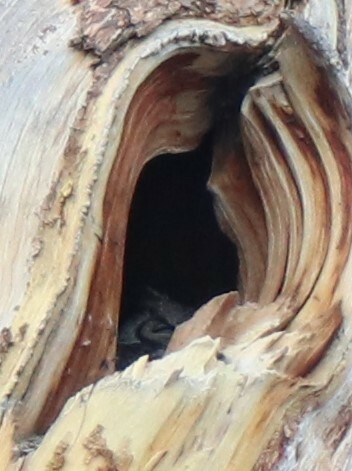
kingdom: Animalia
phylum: Chordata
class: Aves
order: Strigiformes
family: Strigidae
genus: Bubo
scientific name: Bubo virginianus
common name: Great horned owl
